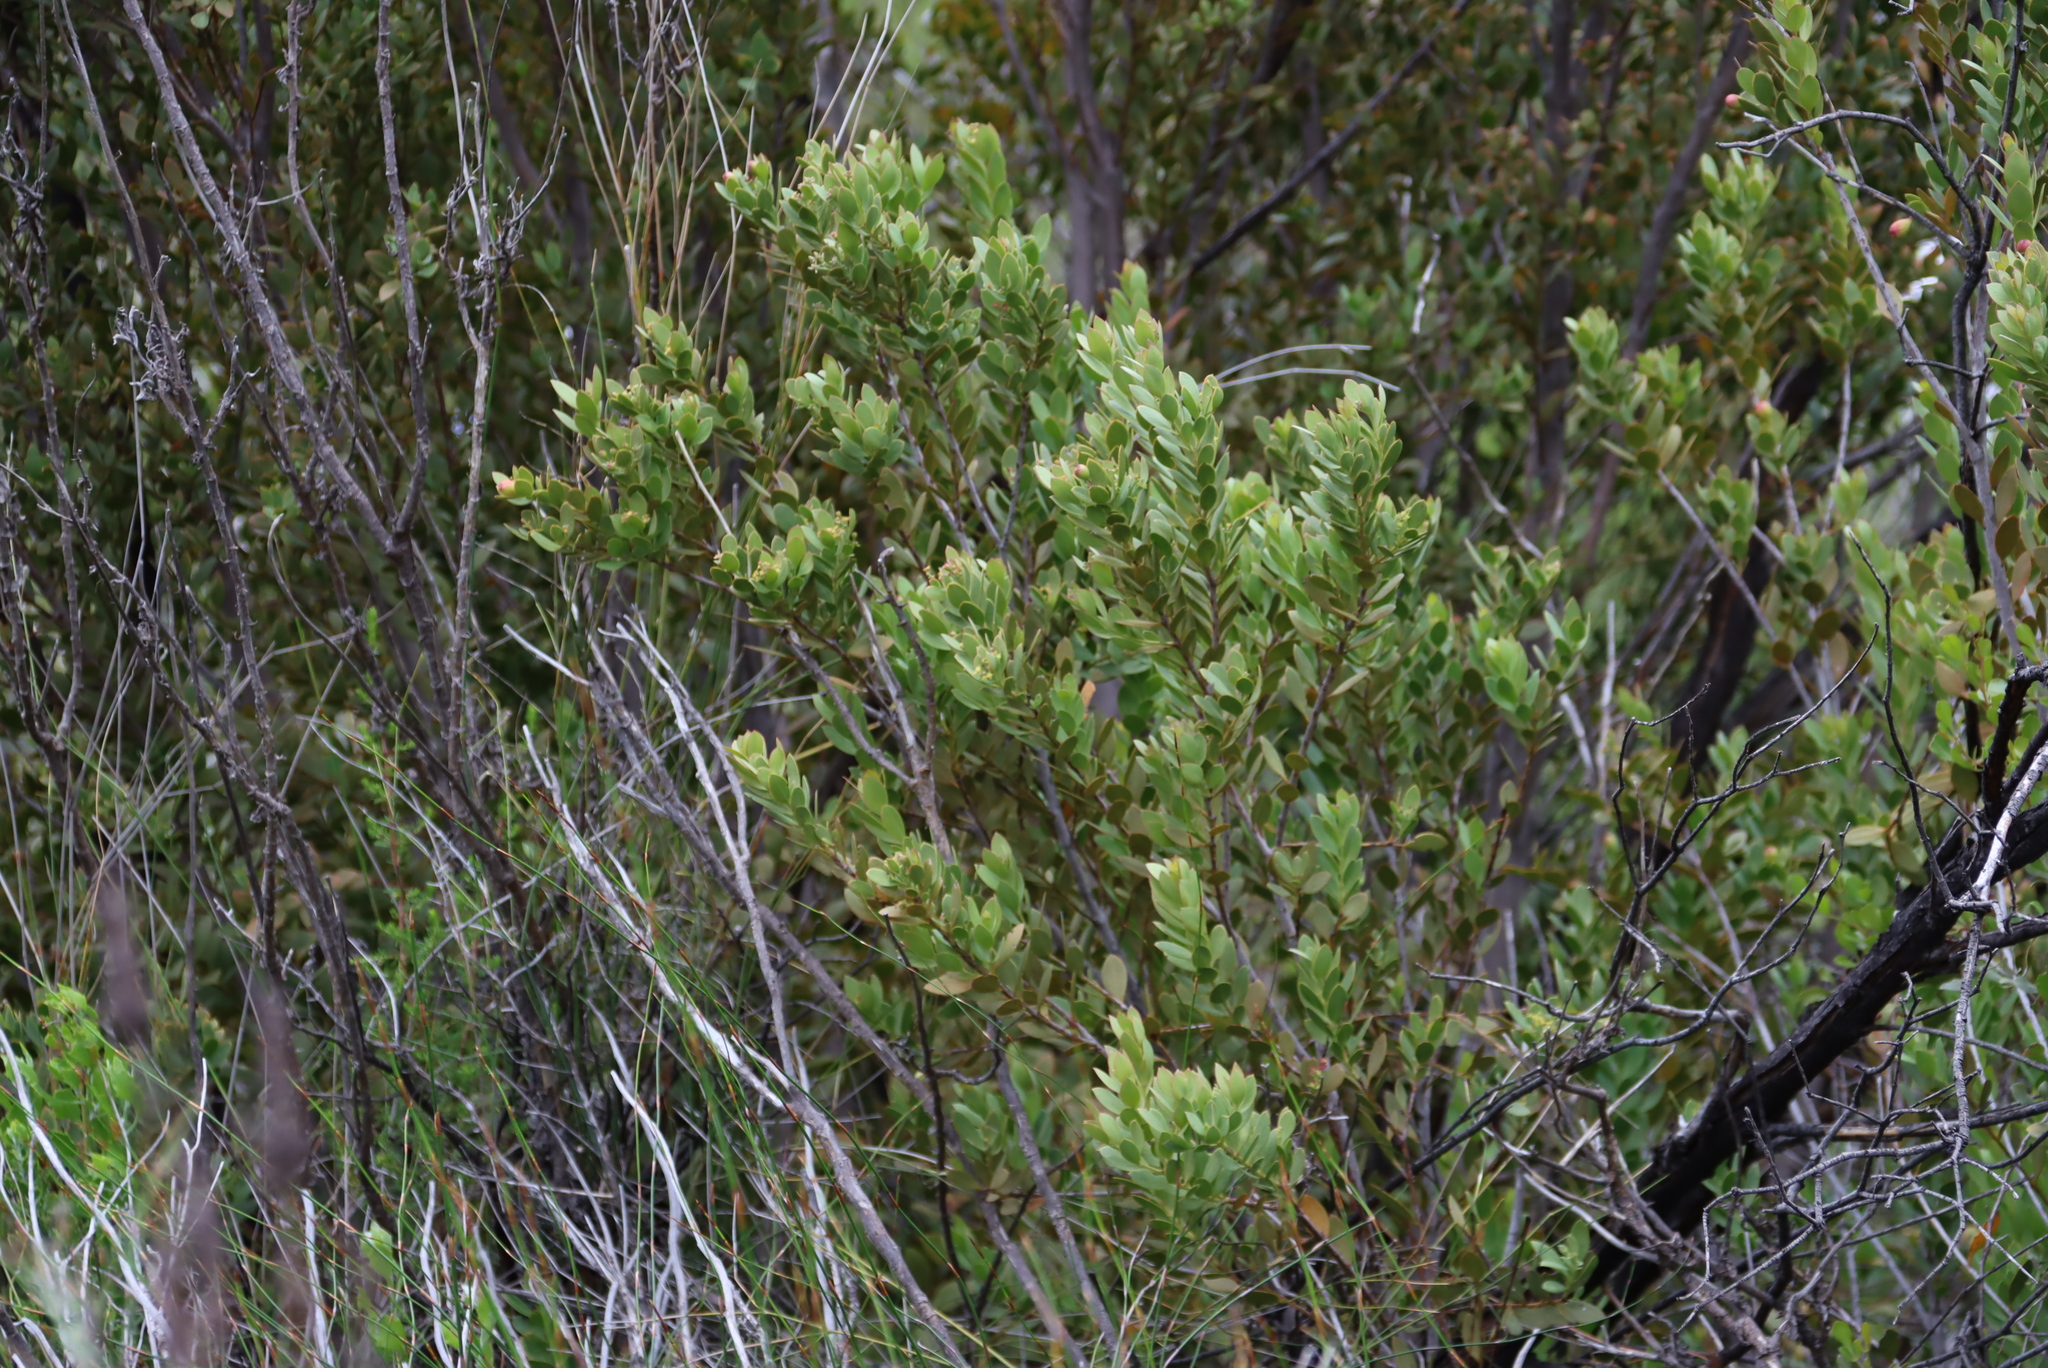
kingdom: Plantae
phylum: Tracheophyta
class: Magnoliopsida
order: Santalales
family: Santalaceae
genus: Osyris
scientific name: Osyris compressa
